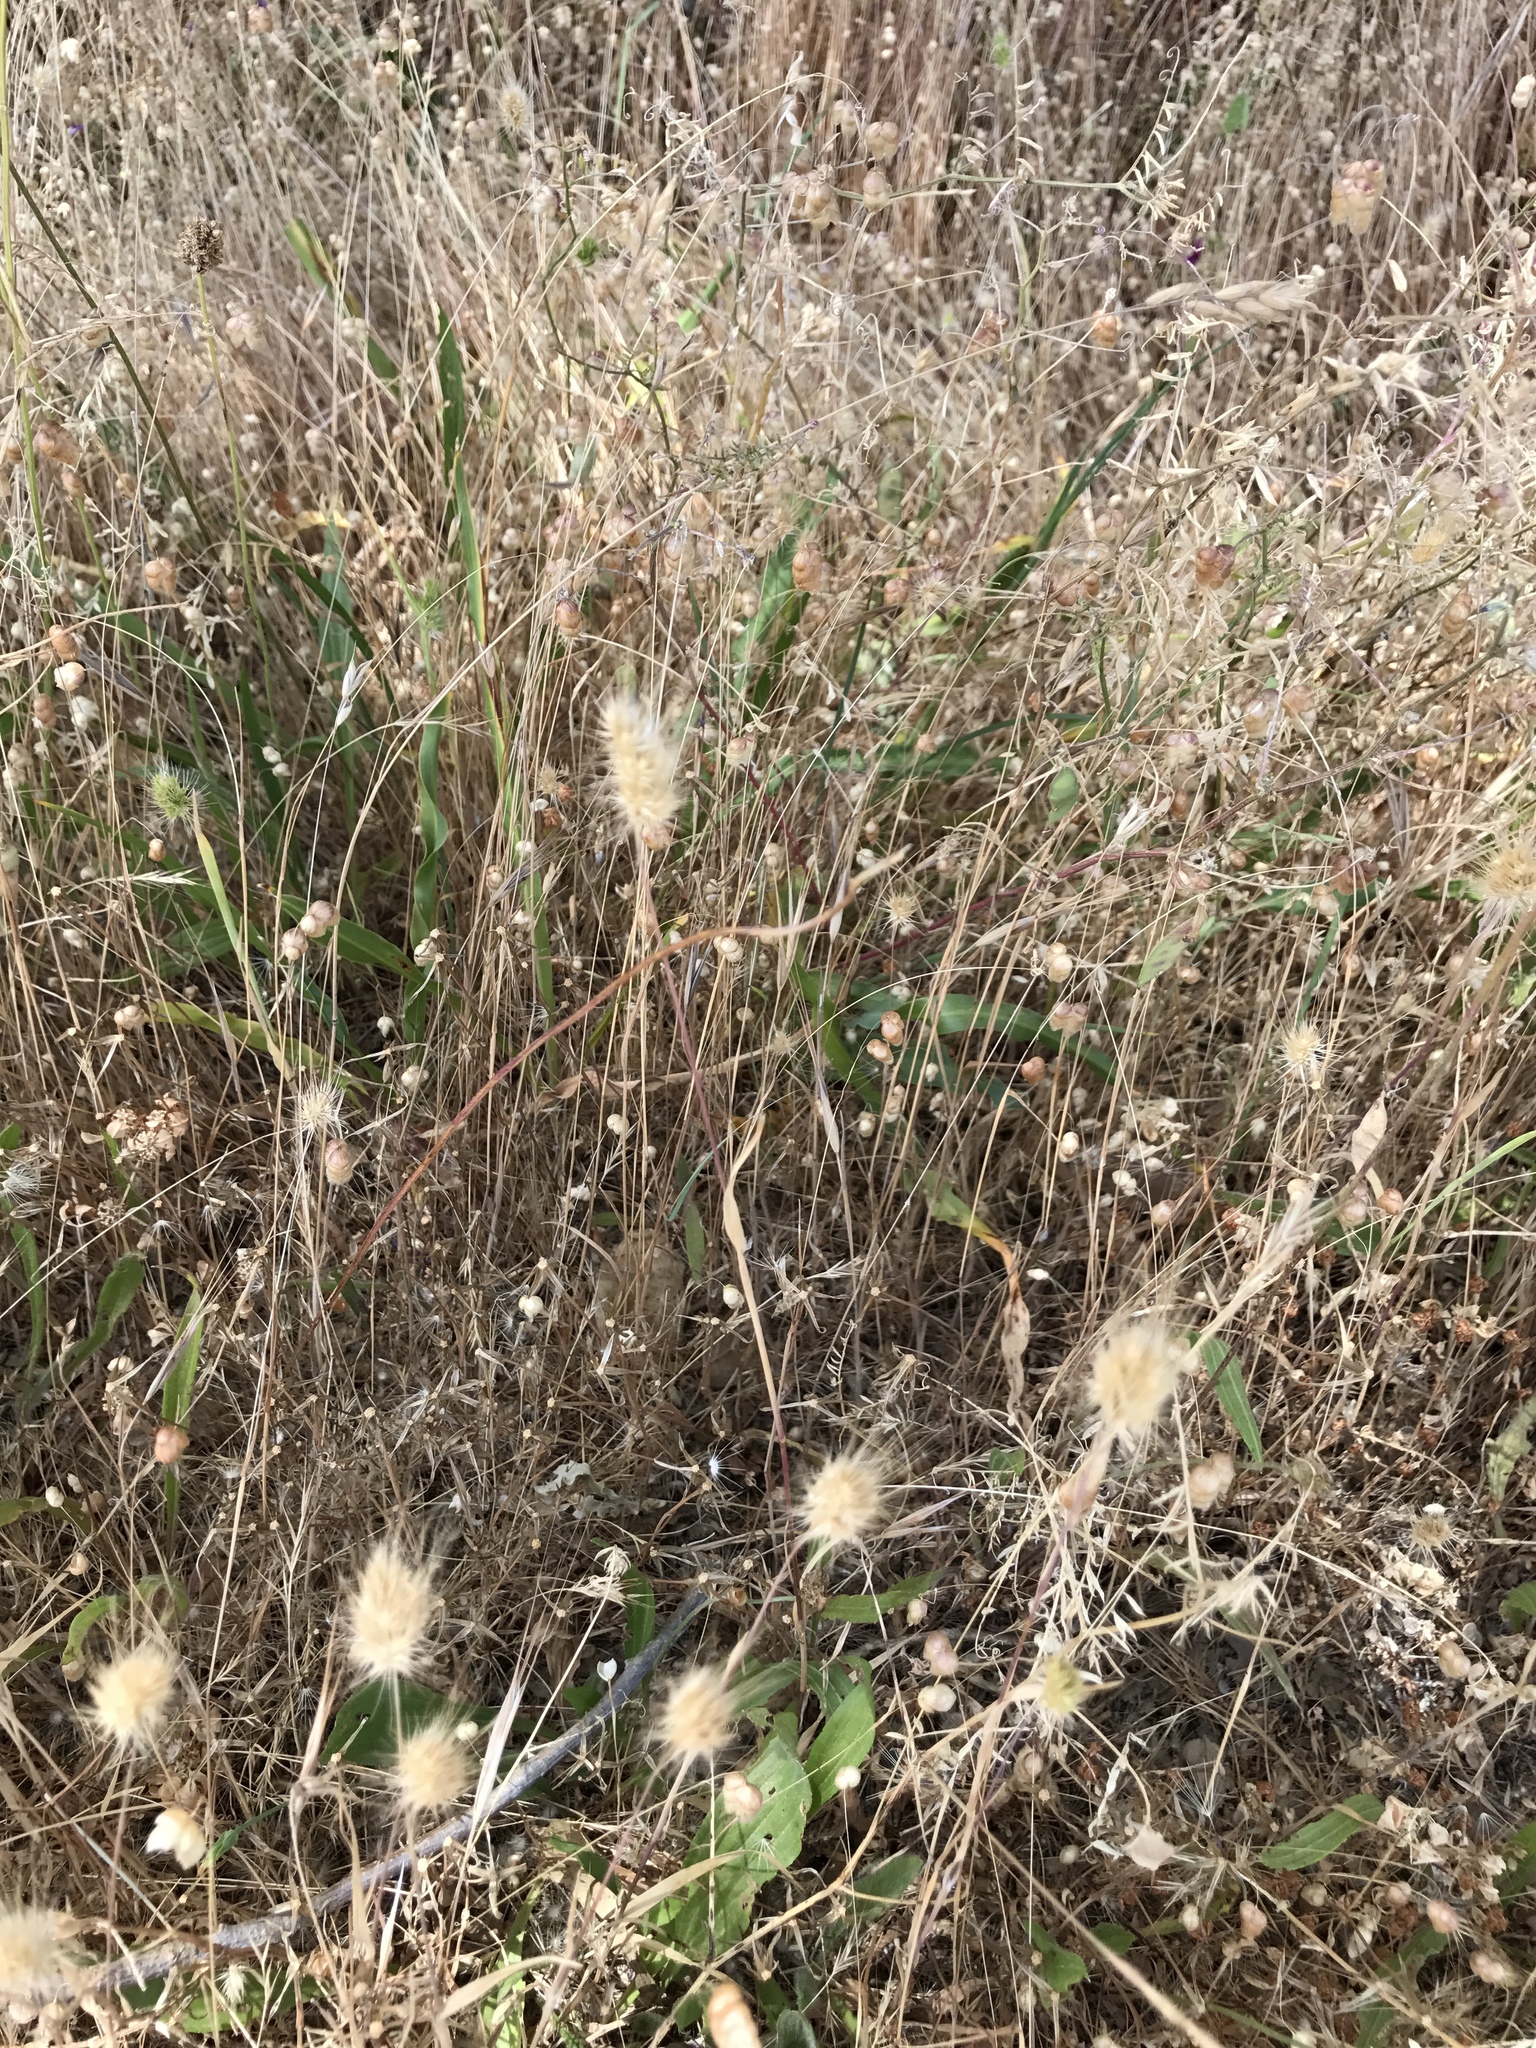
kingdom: Plantae
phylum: Tracheophyta
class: Liliopsida
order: Poales
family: Poaceae
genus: Cynosurus
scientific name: Cynosurus echinatus
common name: Rough dog's-tail
